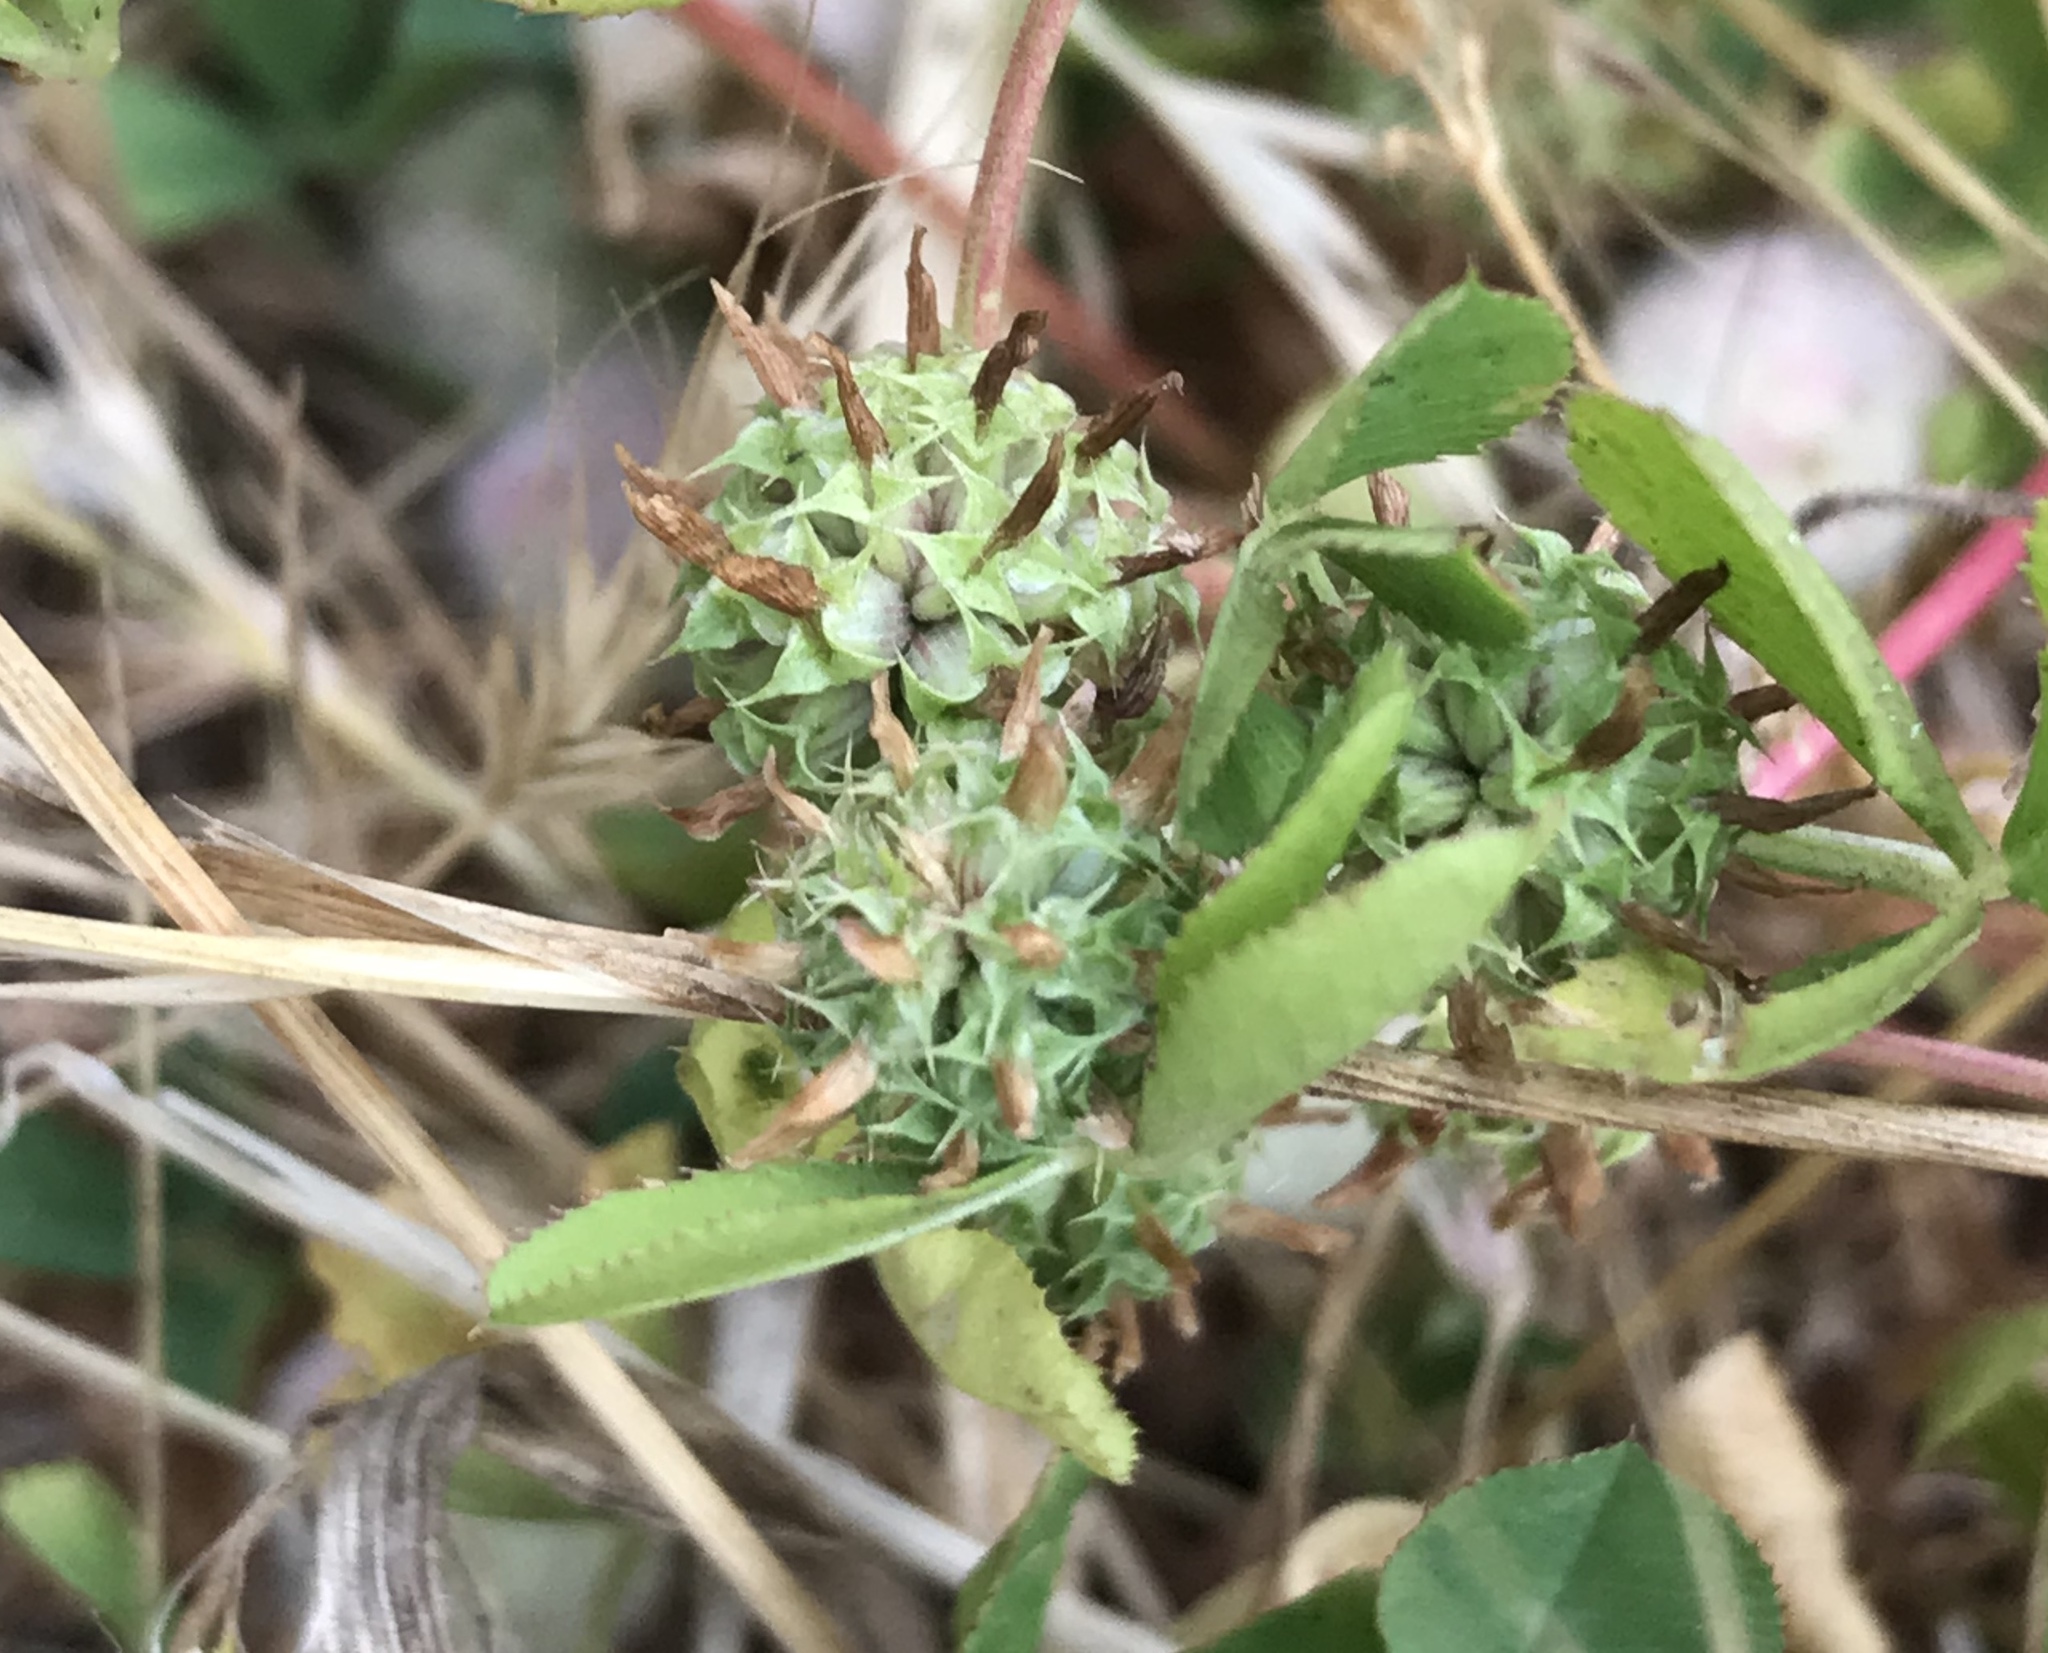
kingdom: Plantae
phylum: Tracheophyta
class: Magnoliopsida
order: Fabales
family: Fabaceae
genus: Trifolium
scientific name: Trifolium fragiferum
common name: Strawberry clover
